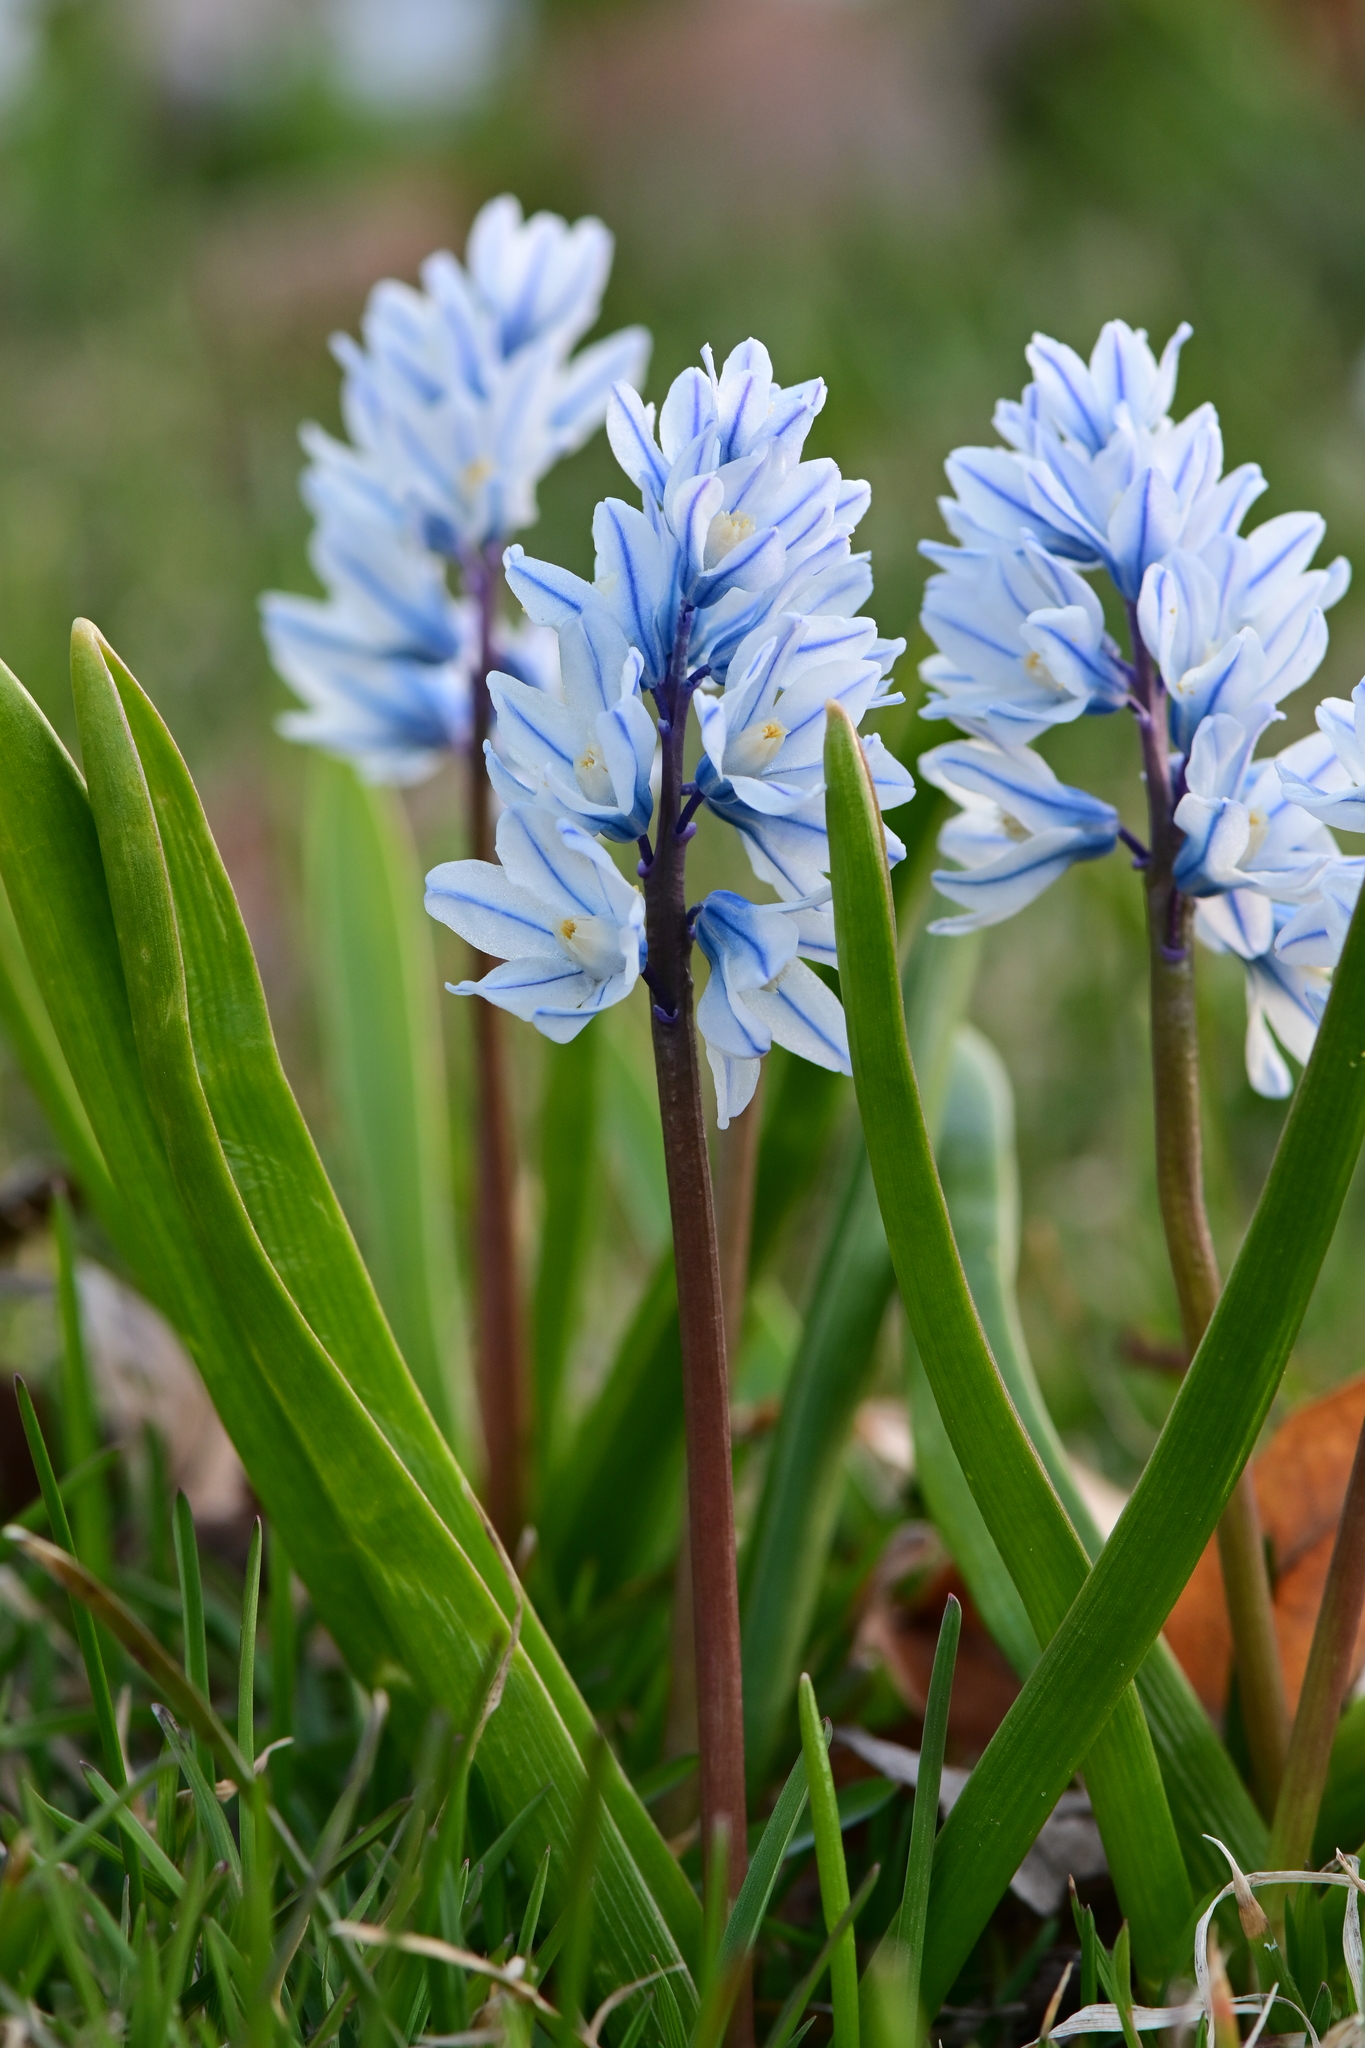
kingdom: Plantae
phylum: Tracheophyta
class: Liliopsida
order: Asparagales
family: Asparagaceae
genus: Puschkinia
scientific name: Puschkinia scilloides
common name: Striped squill
